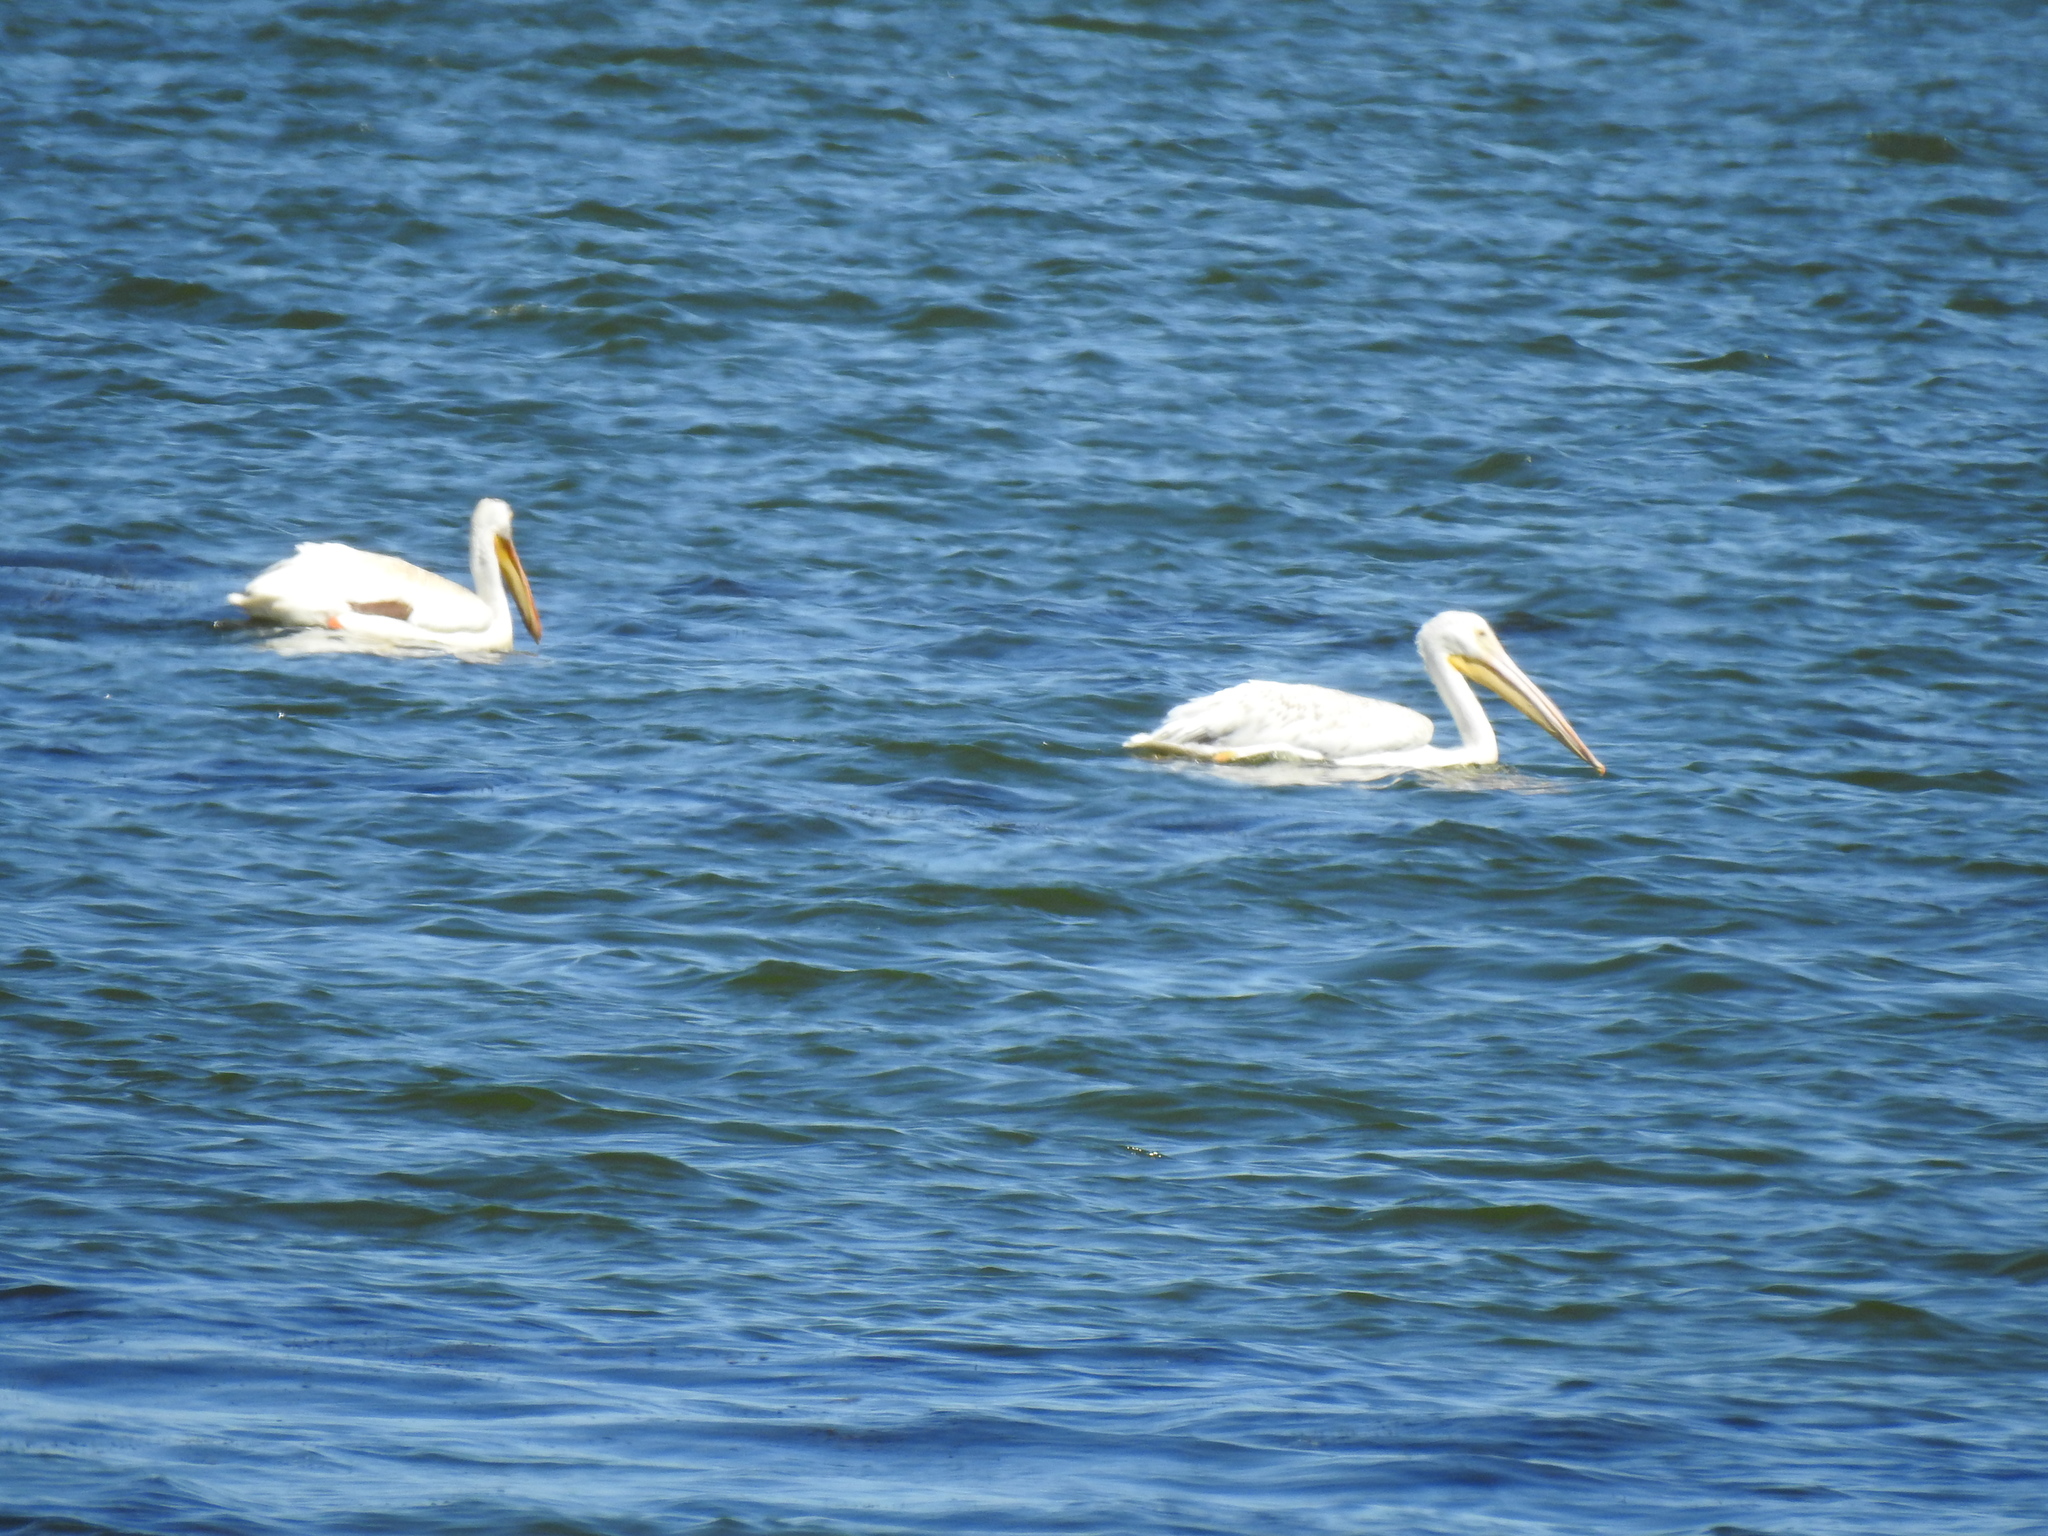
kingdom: Animalia
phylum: Chordata
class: Aves
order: Pelecaniformes
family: Pelecanidae
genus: Pelecanus
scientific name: Pelecanus erythrorhynchos
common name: American white pelican
